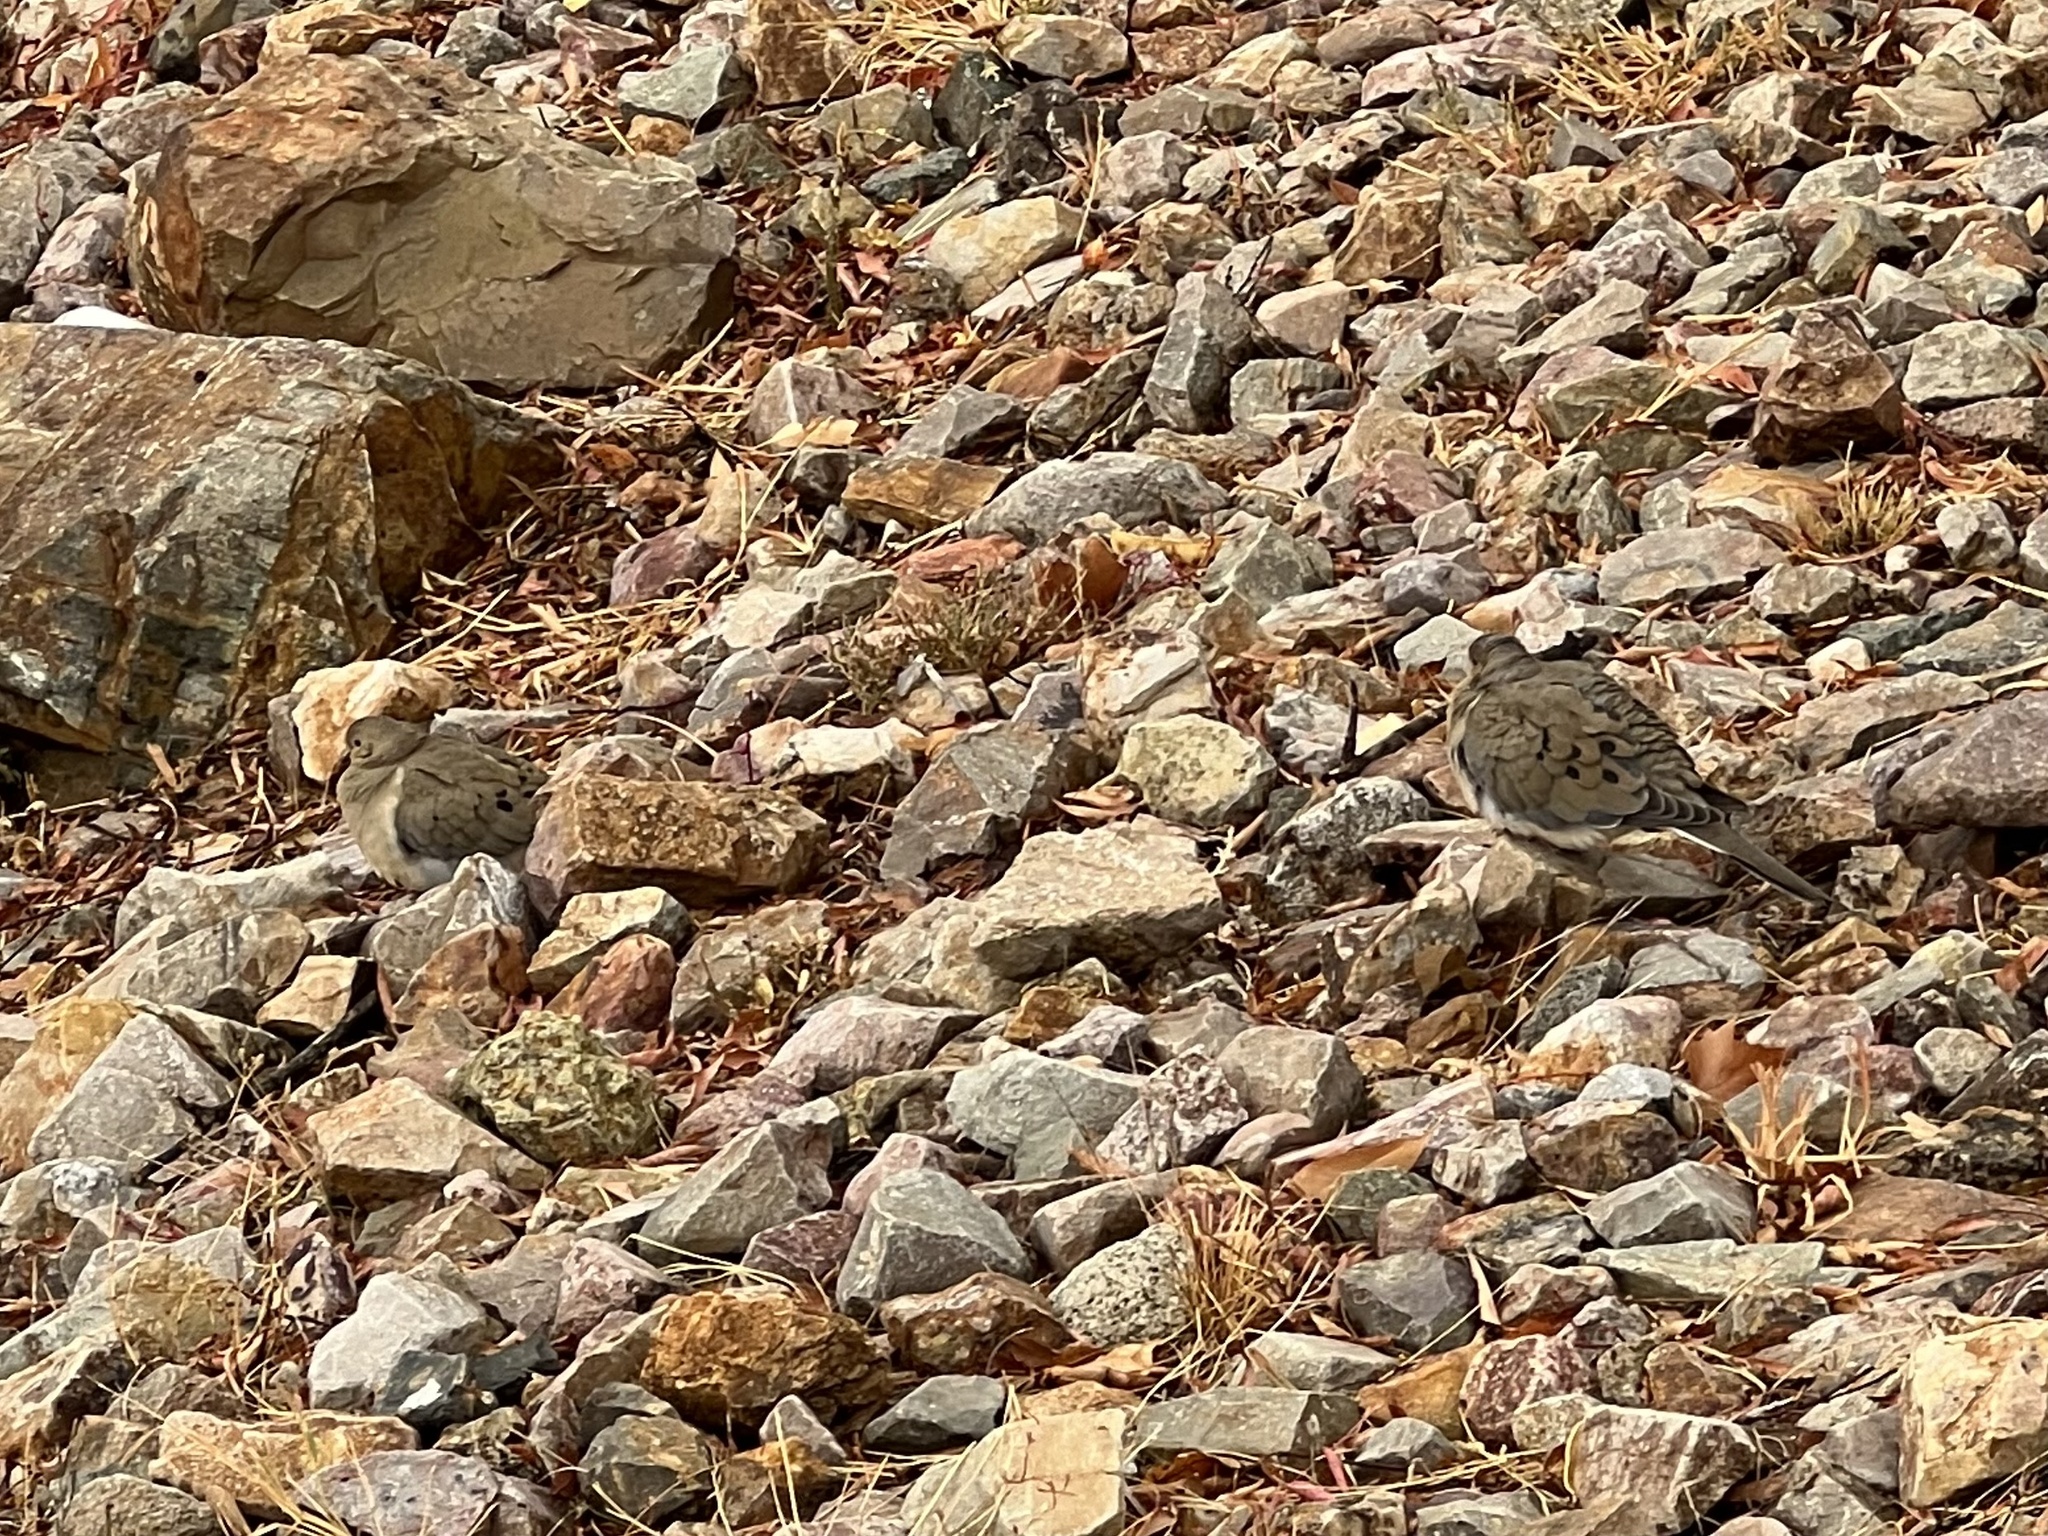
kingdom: Animalia
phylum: Chordata
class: Aves
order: Columbiformes
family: Columbidae
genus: Zenaida
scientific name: Zenaida macroura
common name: Mourning dove
